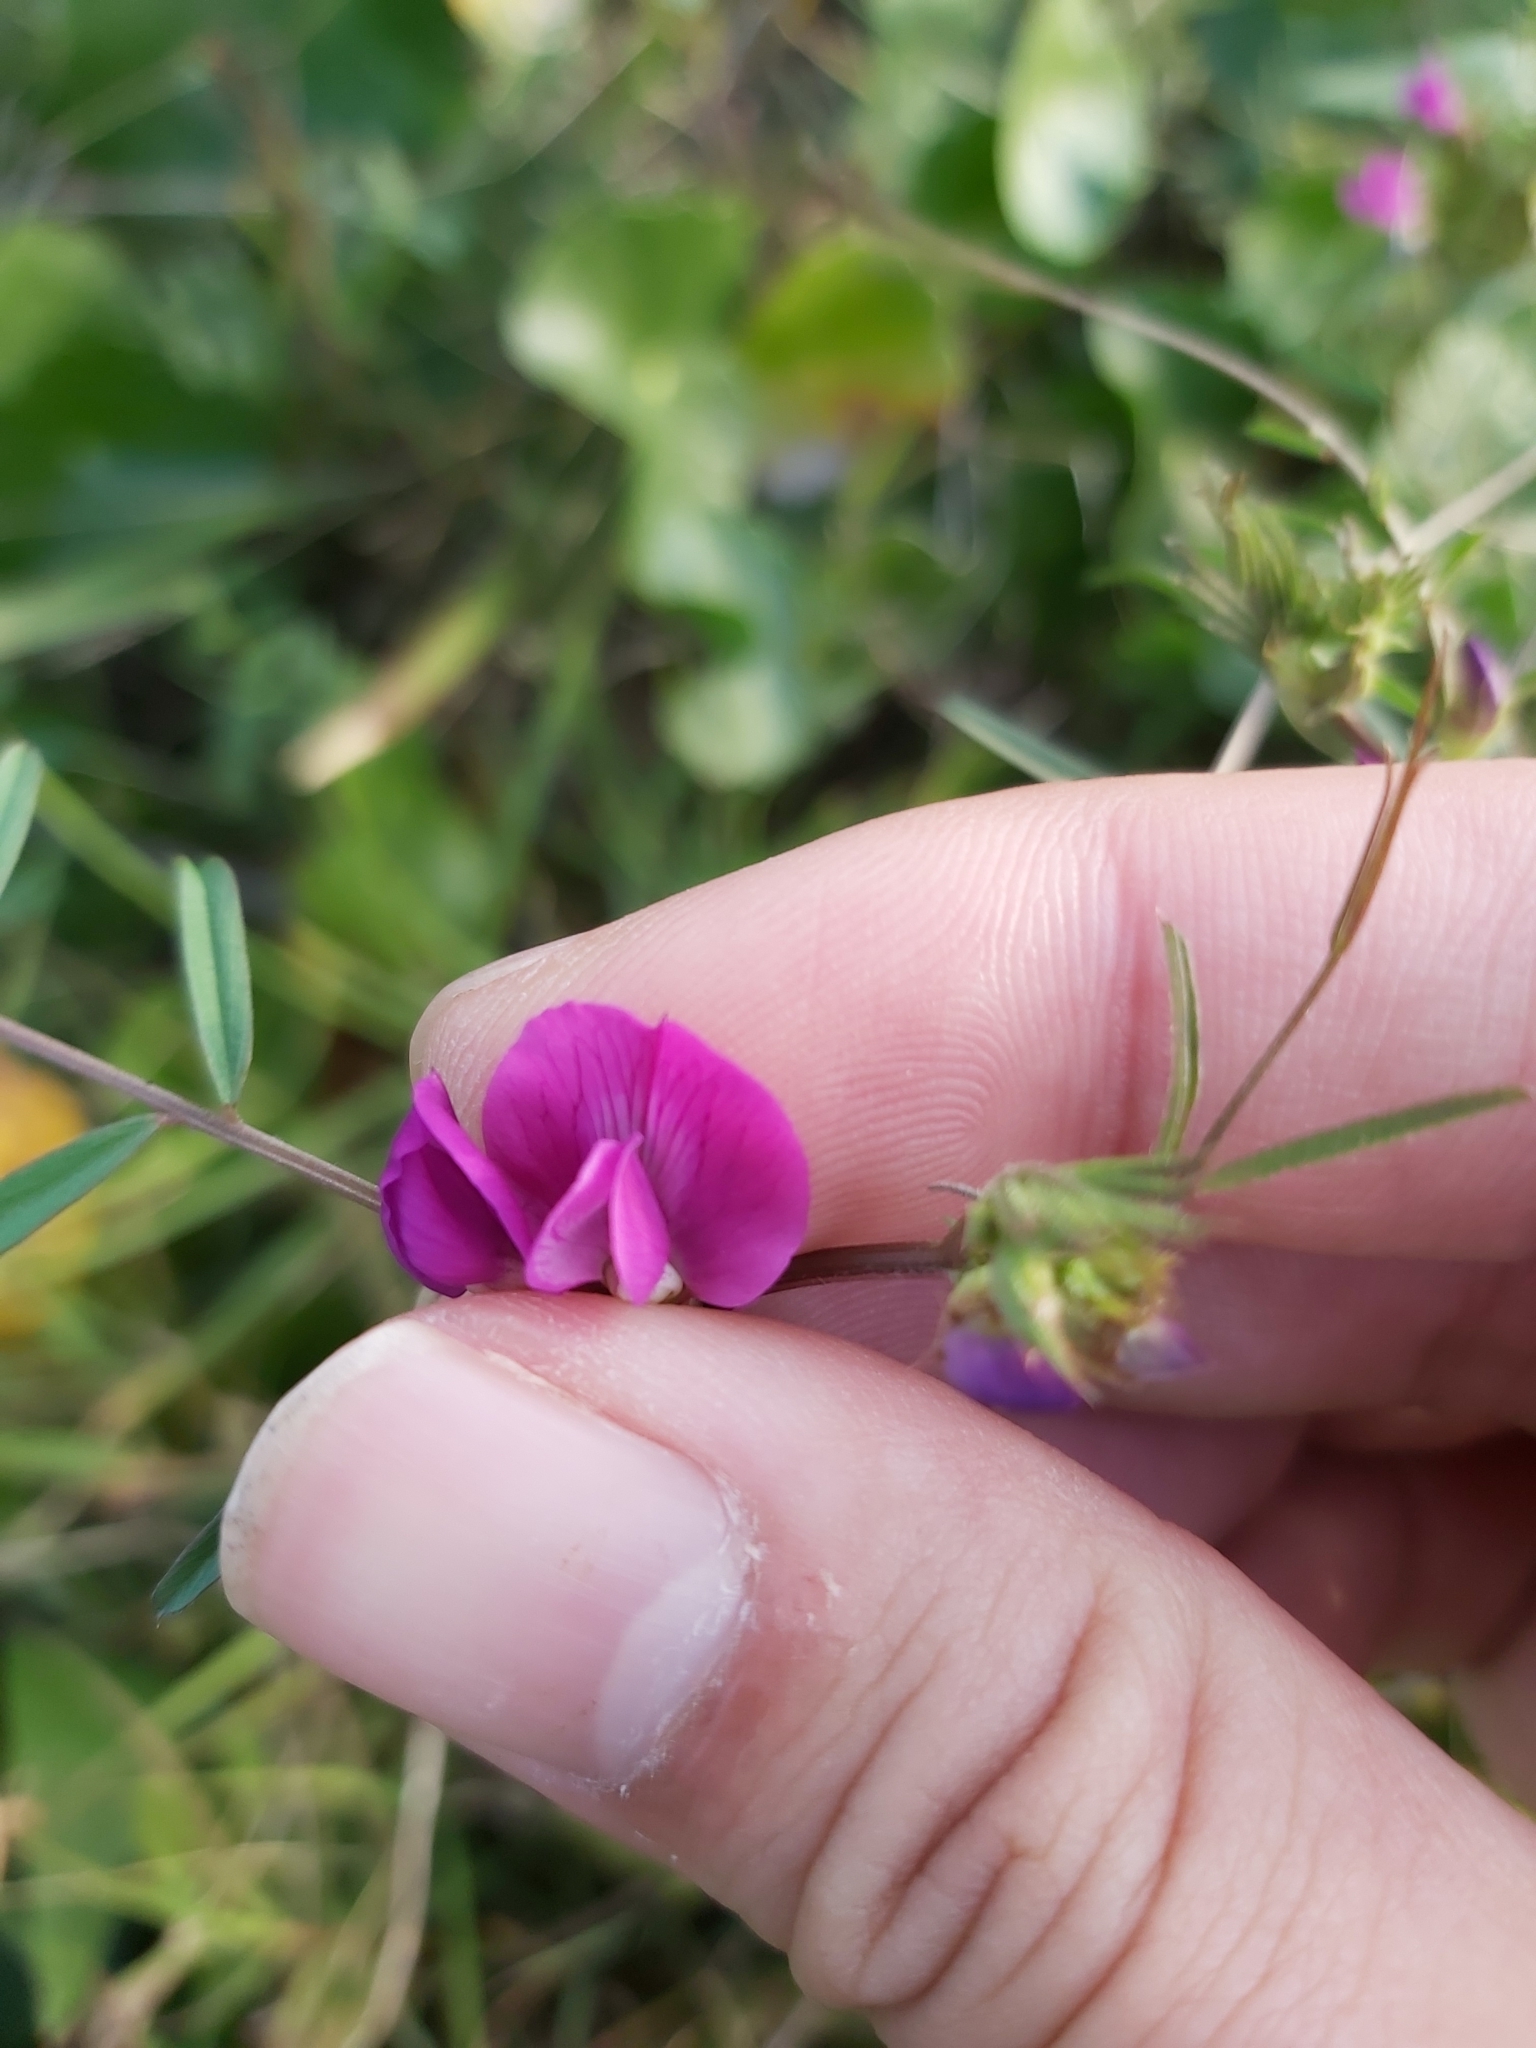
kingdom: Plantae
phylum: Tracheophyta
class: Magnoliopsida
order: Fabales
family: Fabaceae
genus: Vicia
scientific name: Vicia sativa
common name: Garden vetch
